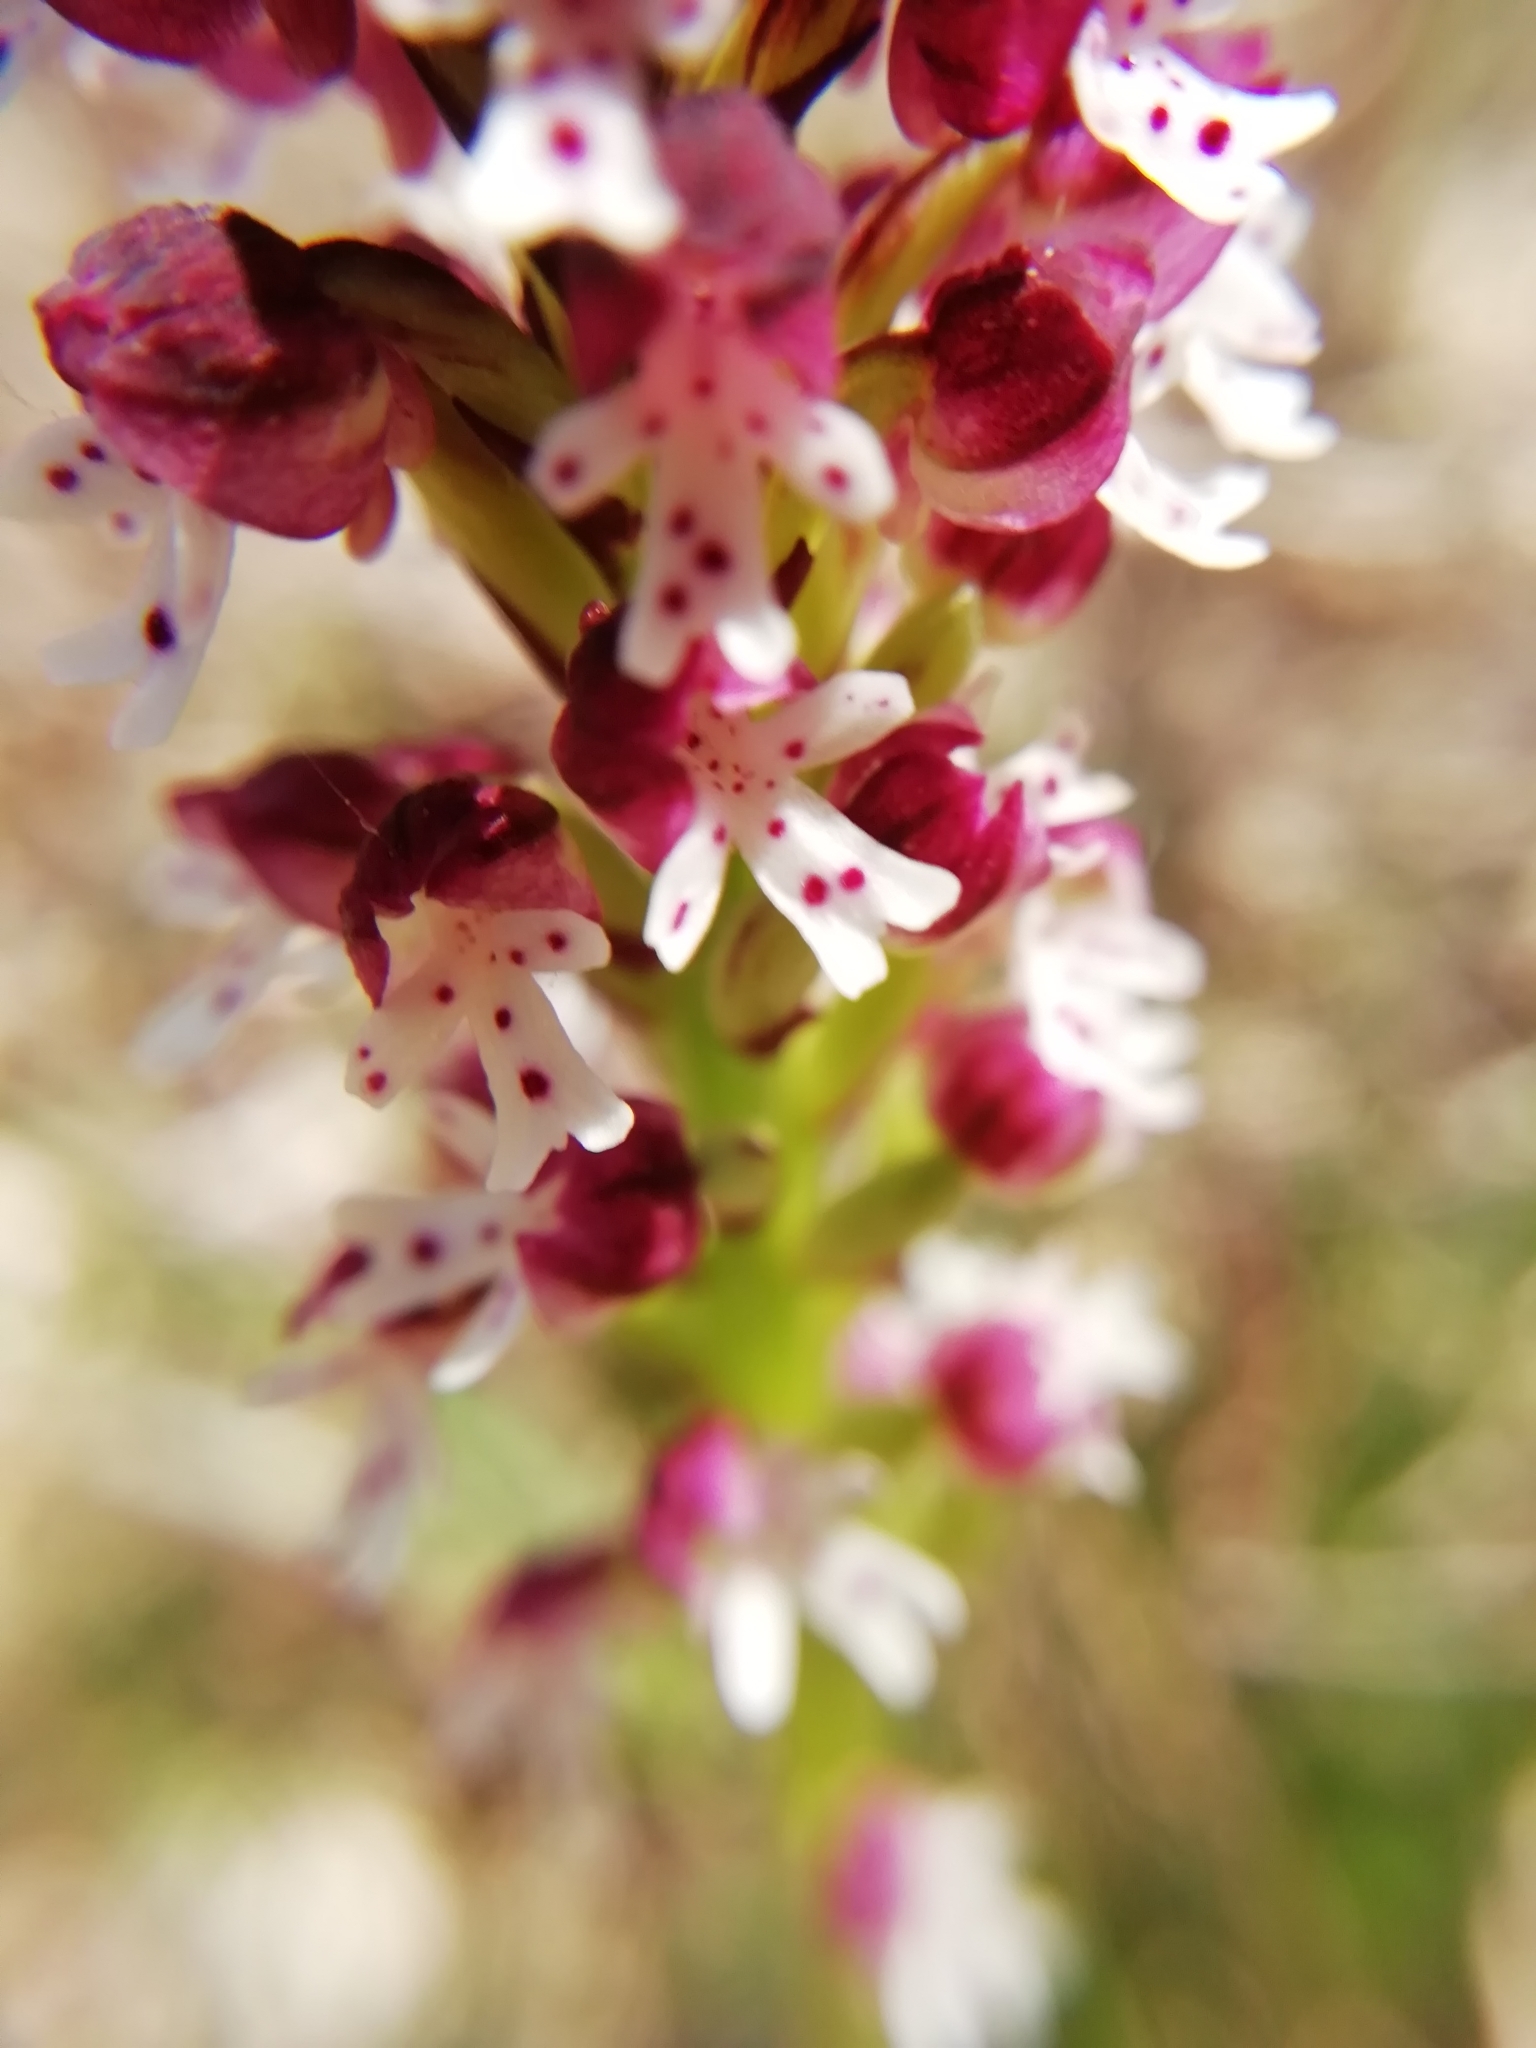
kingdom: Plantae
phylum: Tracheophyta
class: Liliopsida
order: Asparagales
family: Orchidaceae
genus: Neotinea
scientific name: Neotinea ustulata
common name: Burnt orchid
